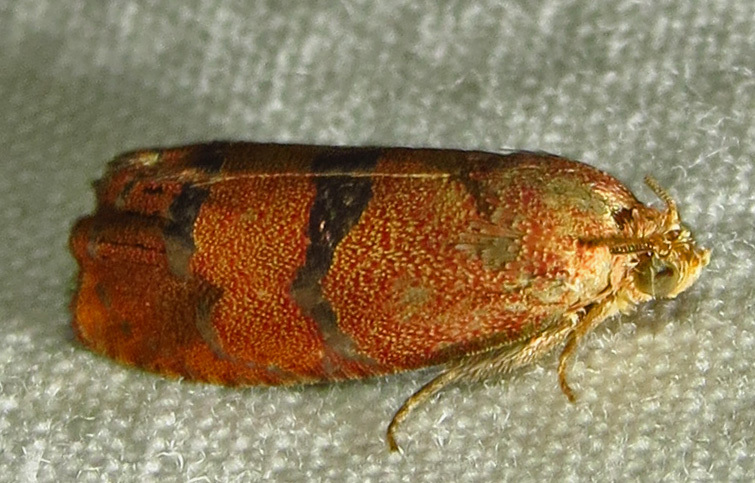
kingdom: Animalia
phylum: Arthropoda
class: Insecta
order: Lepidoptera
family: Tortricidae
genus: Cydia
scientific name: Cydia latiferreana
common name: Filbertworm moth
